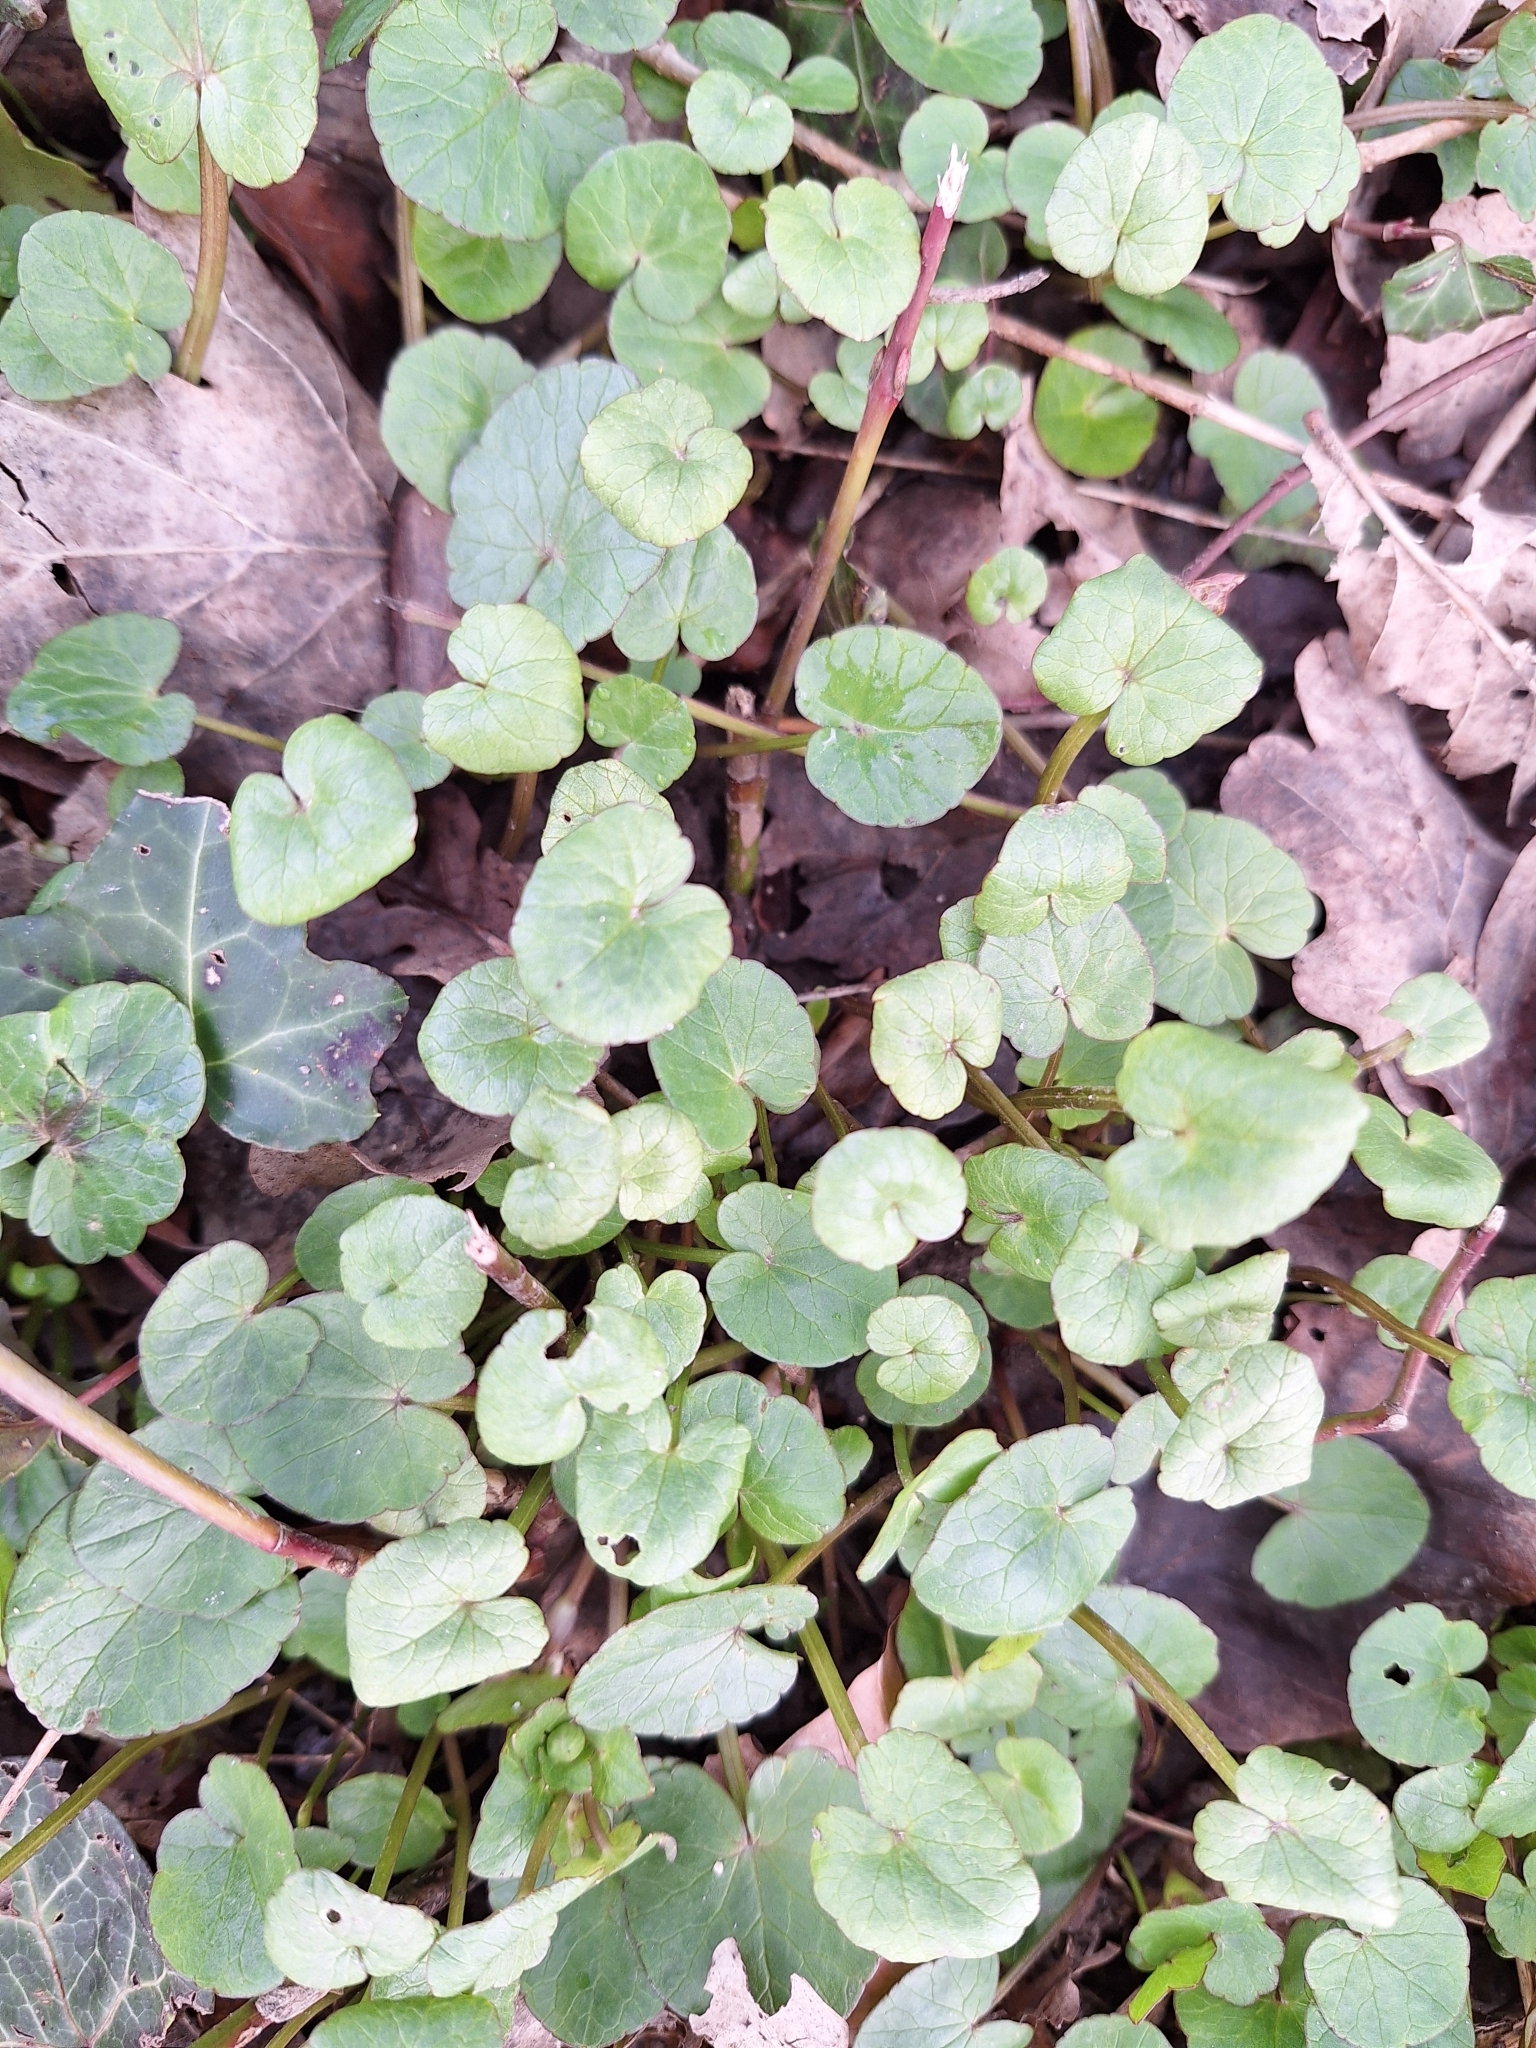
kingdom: Plantae
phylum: Tracheophyta
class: Magnoliopsida
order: Ranunculales
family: Ranunculaceae
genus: Ficaria
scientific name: Ficaria verna
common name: Lesser celandine
